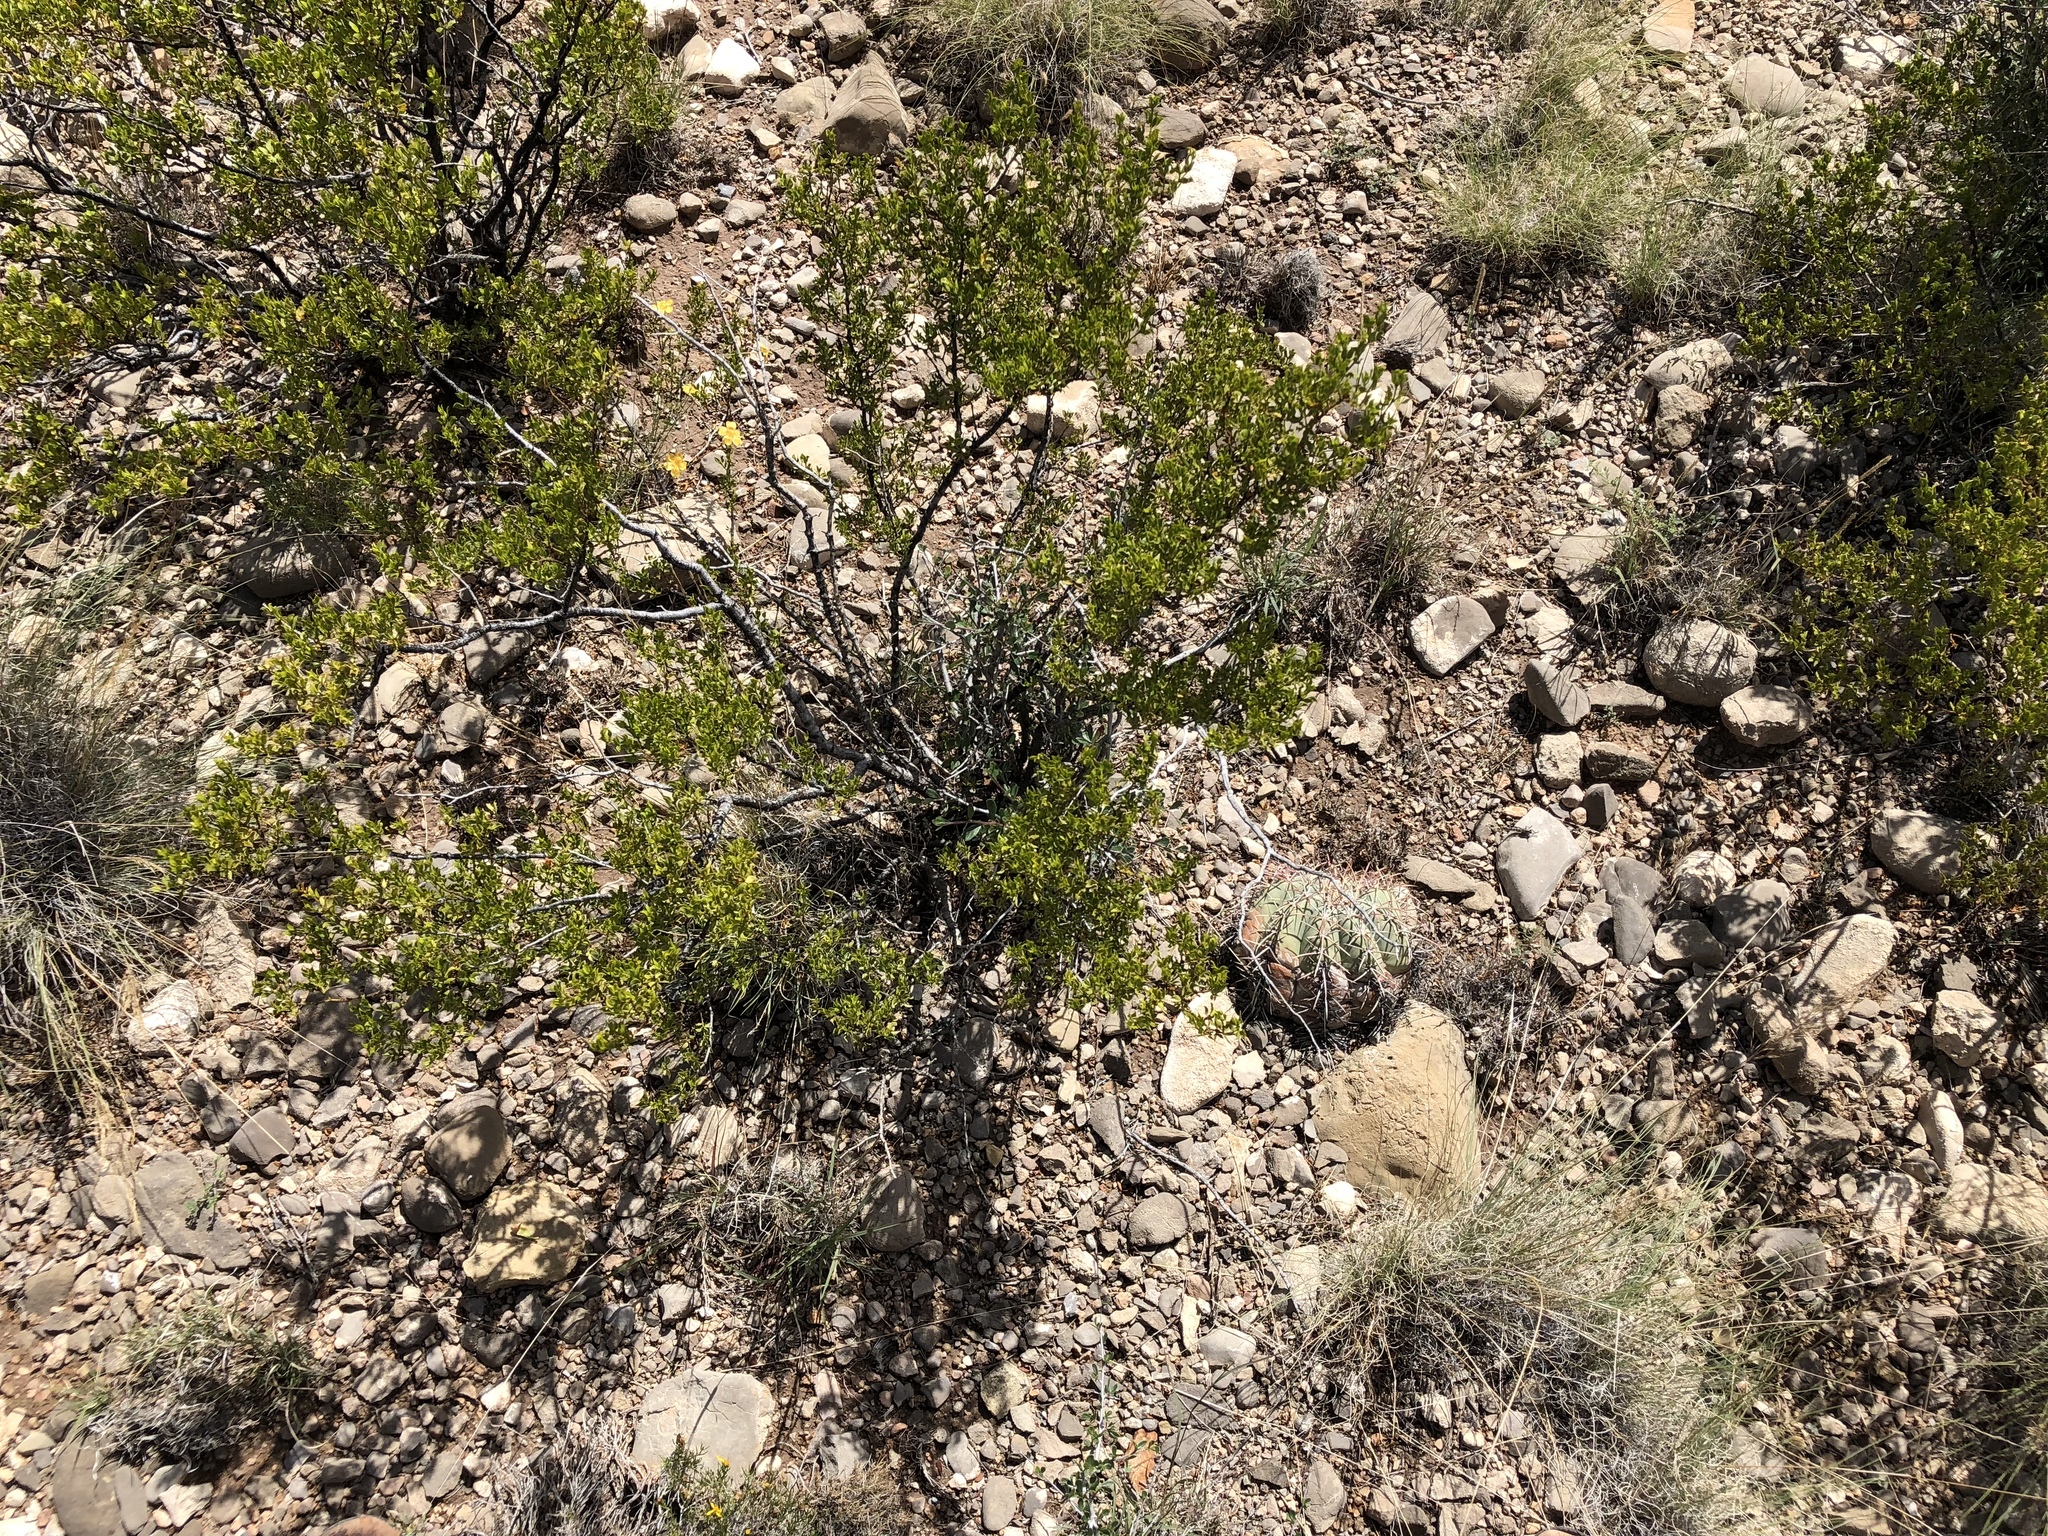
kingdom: Plantae
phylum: Tracheophyta
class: Magnoliopsida
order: Zygophyllales
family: Zygophyllaceae
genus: Larrea
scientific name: Larrea tridentata
